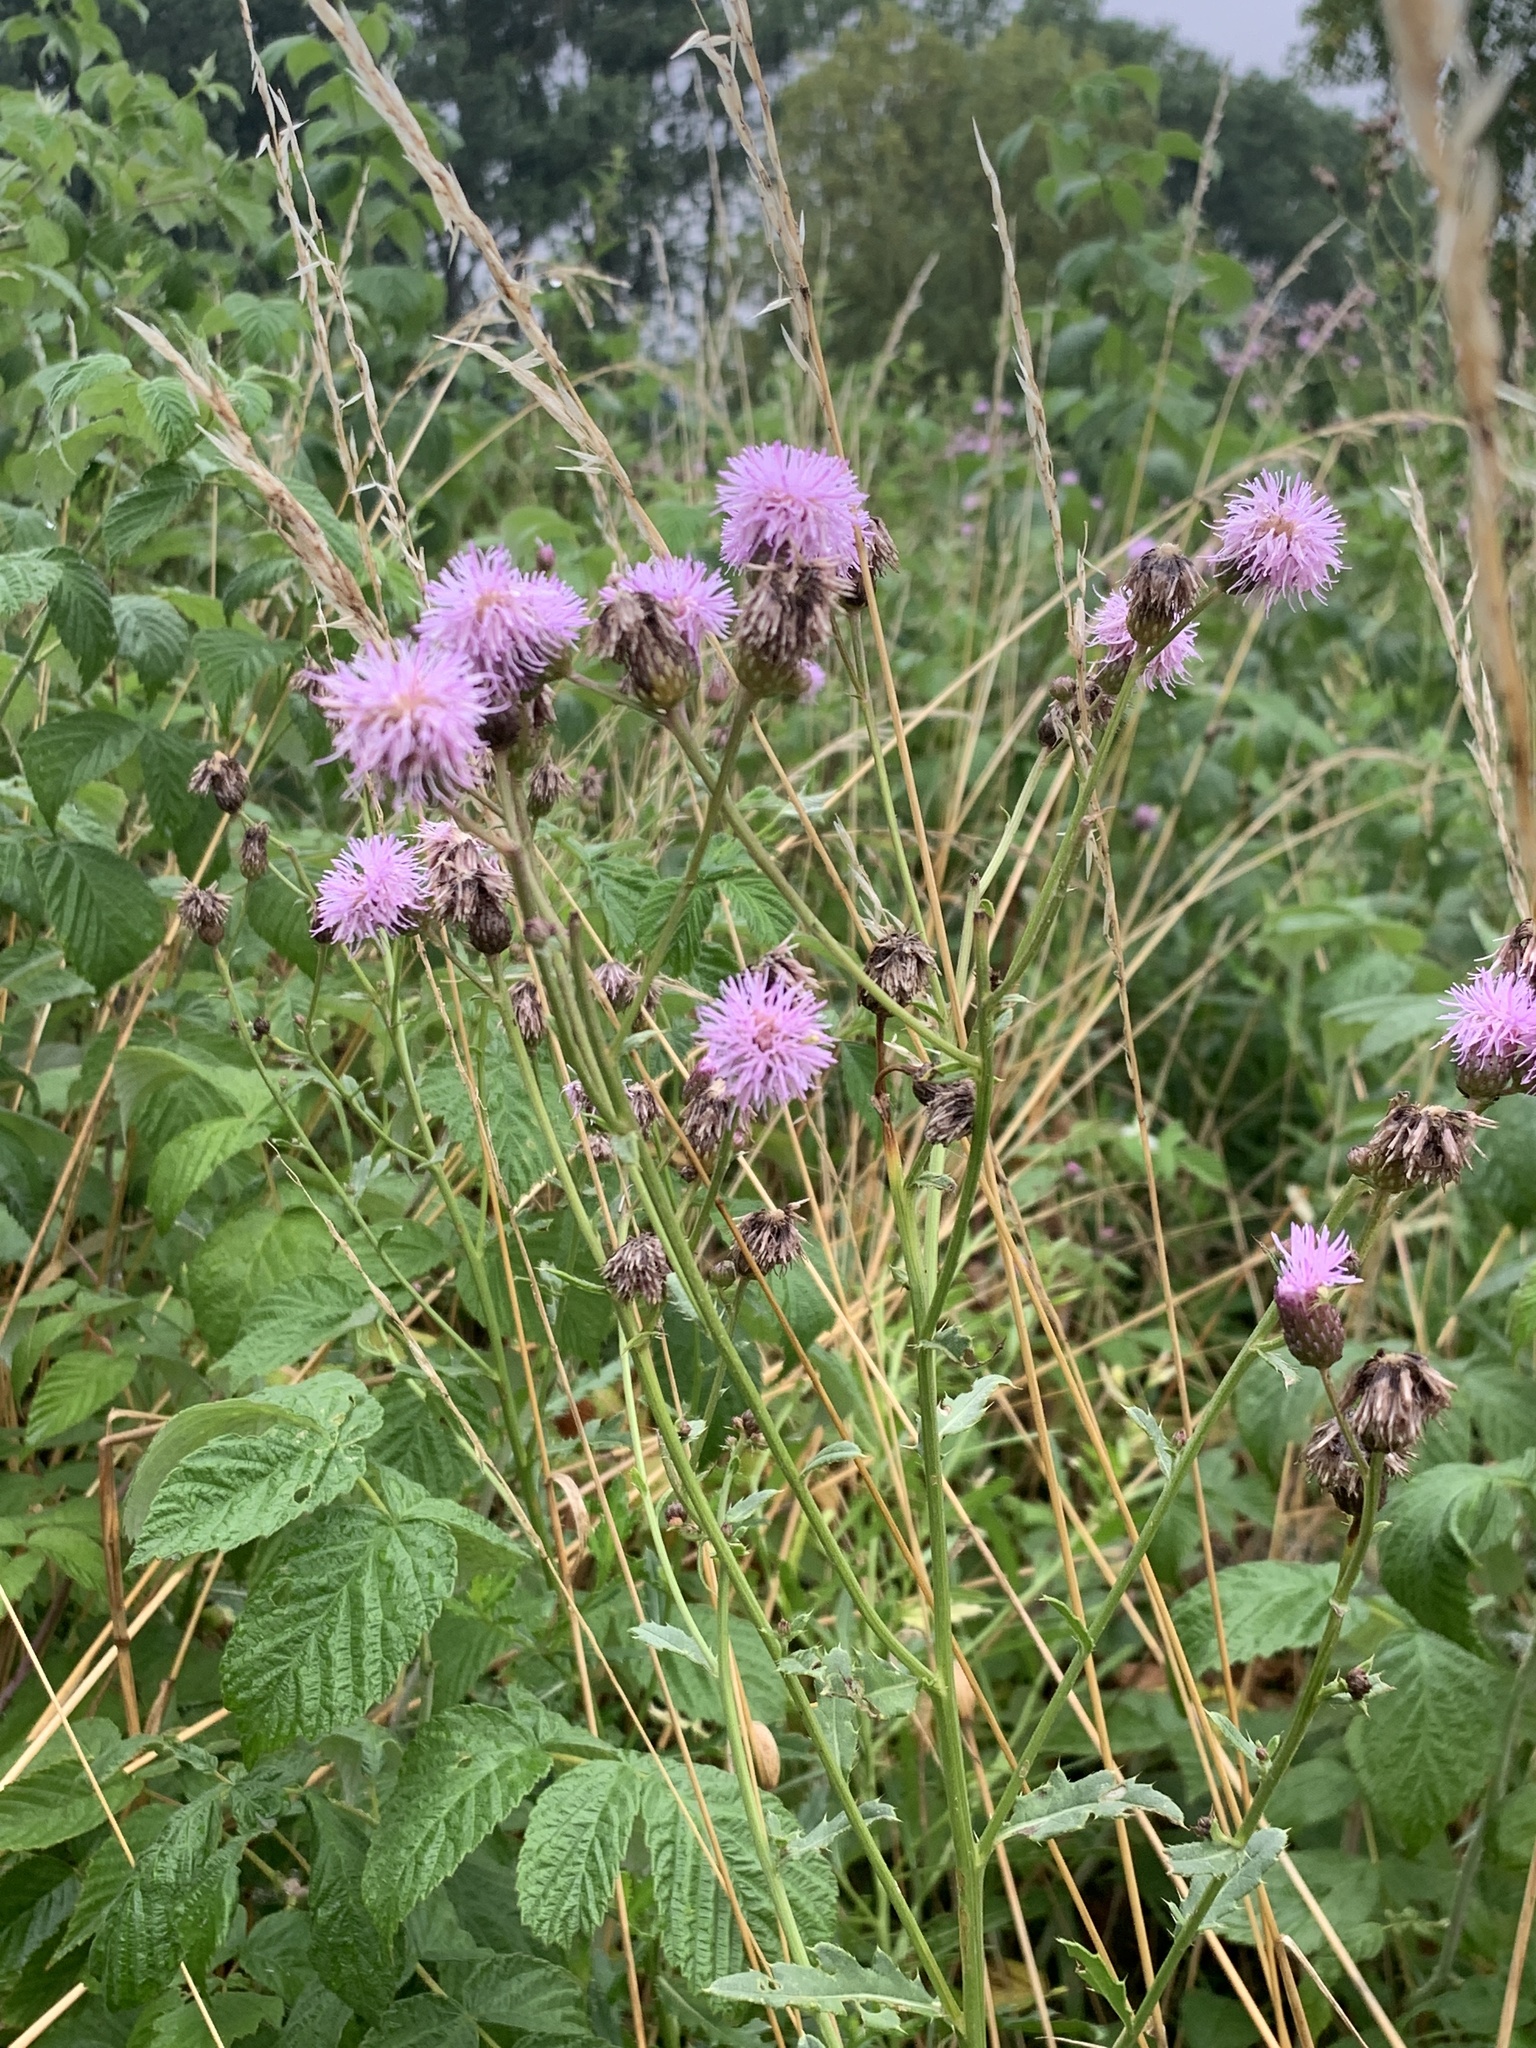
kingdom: Plantae
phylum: Tracheophyta
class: Magnoliopsida
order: Asterales
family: Asteraceae
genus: Cirsium
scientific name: Cirsium arvense
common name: Creeping thistle
